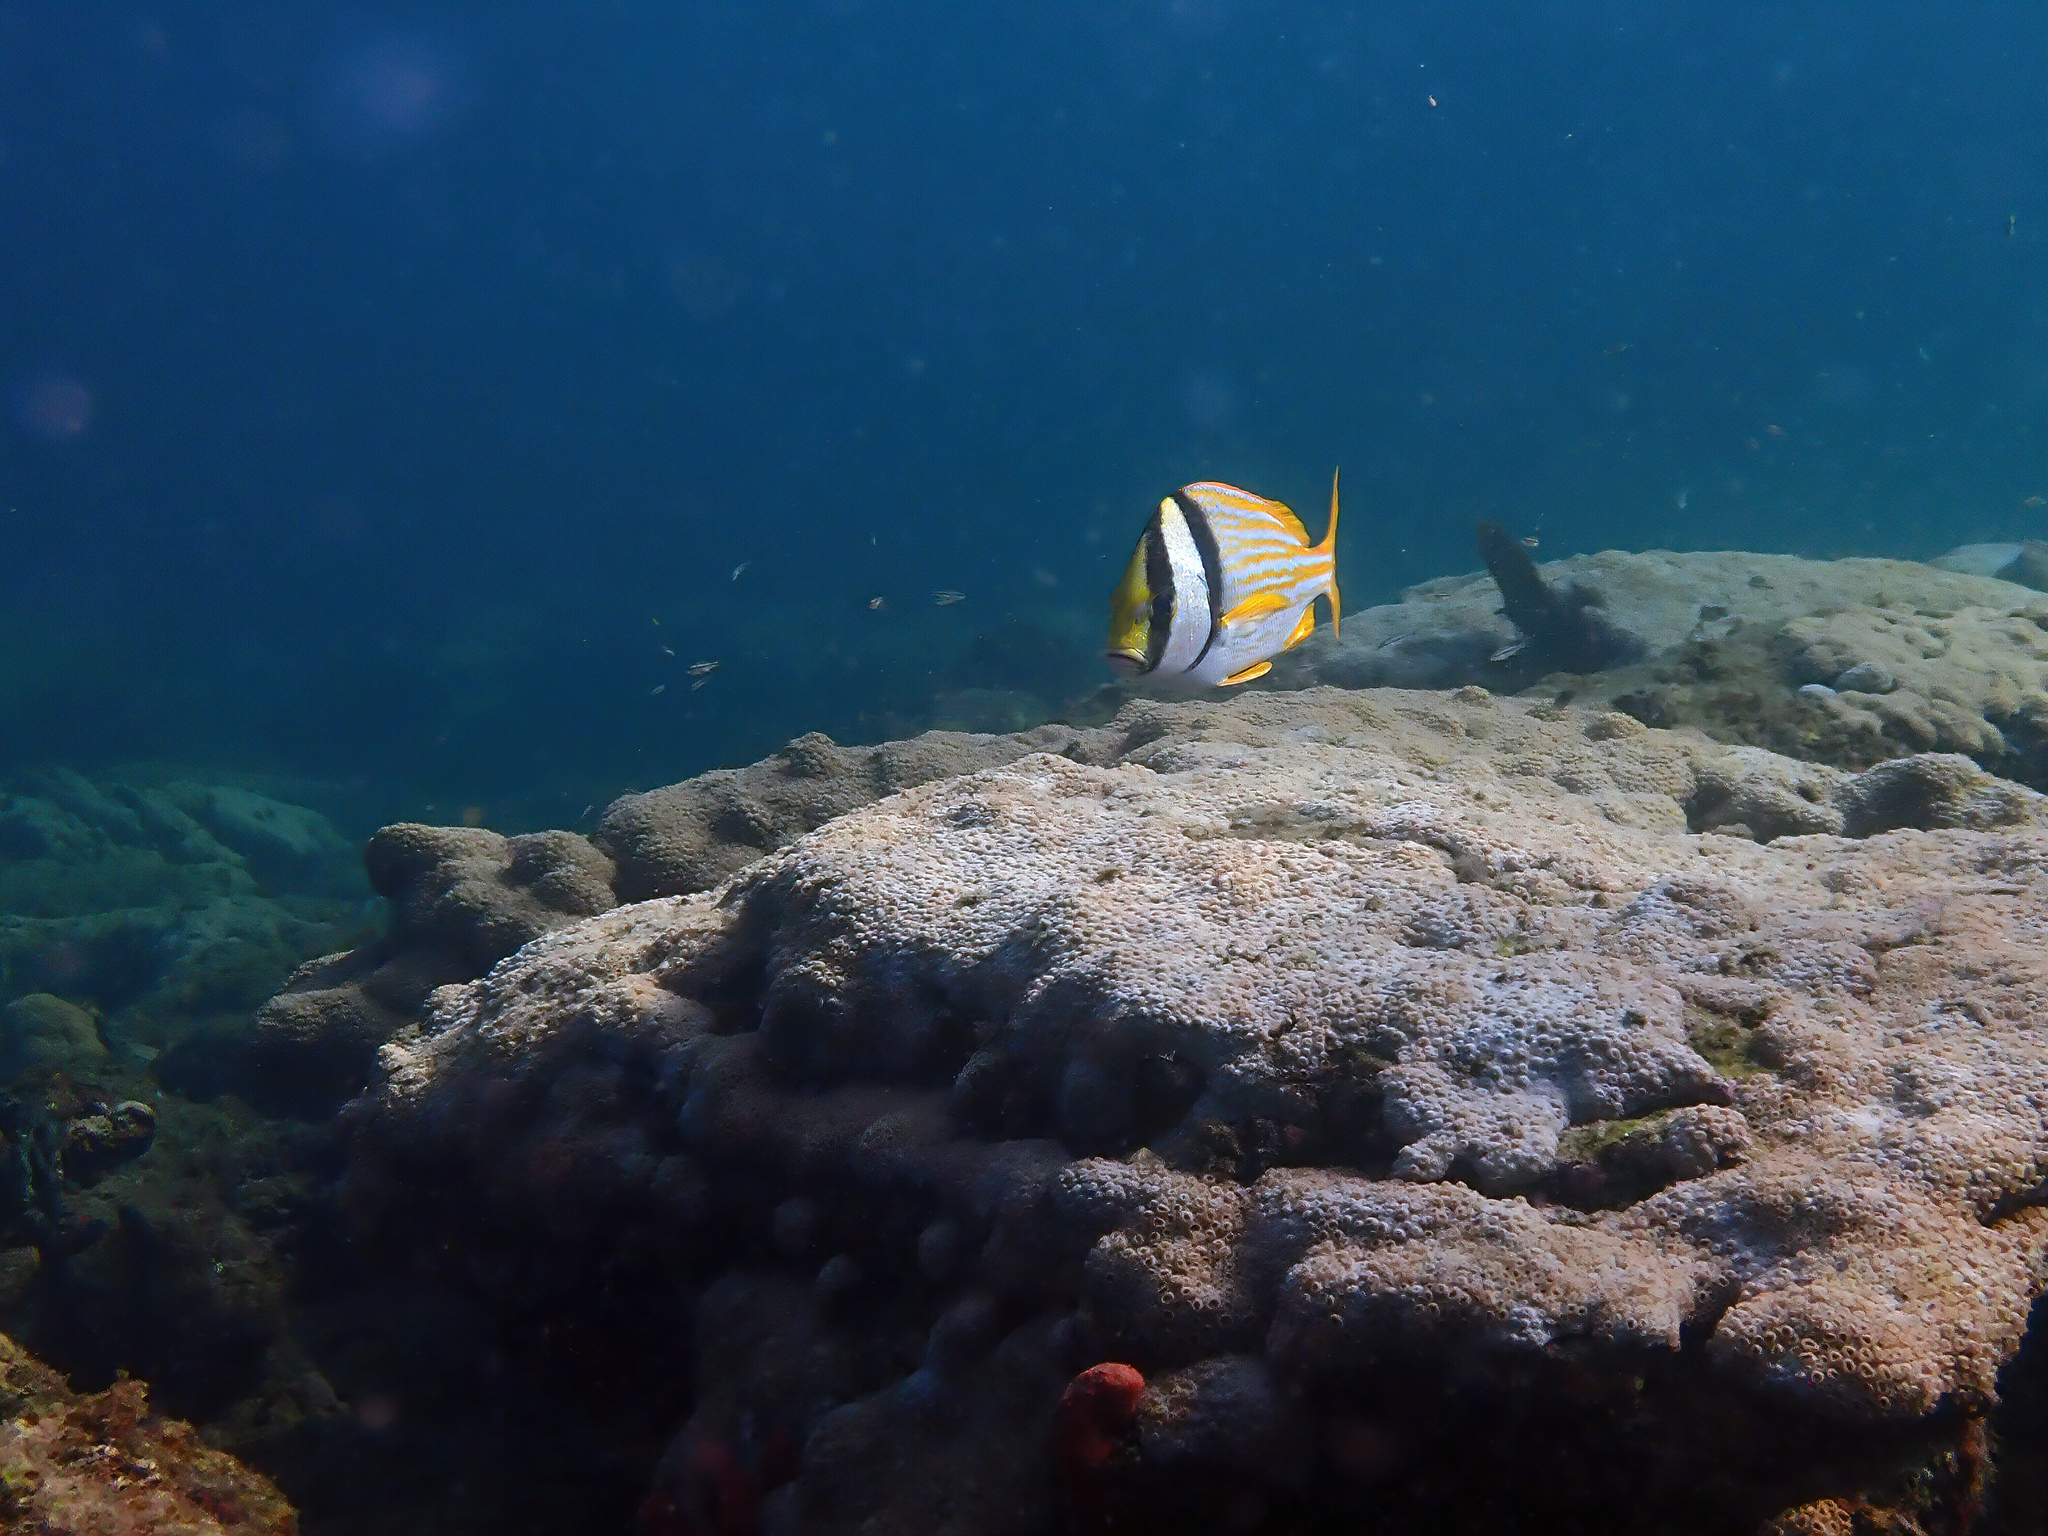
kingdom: Animalia
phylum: Chordata
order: Perciformes
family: Haemulidae
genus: Anisotremus
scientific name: Anisotremus virginicus
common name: Porkfish
